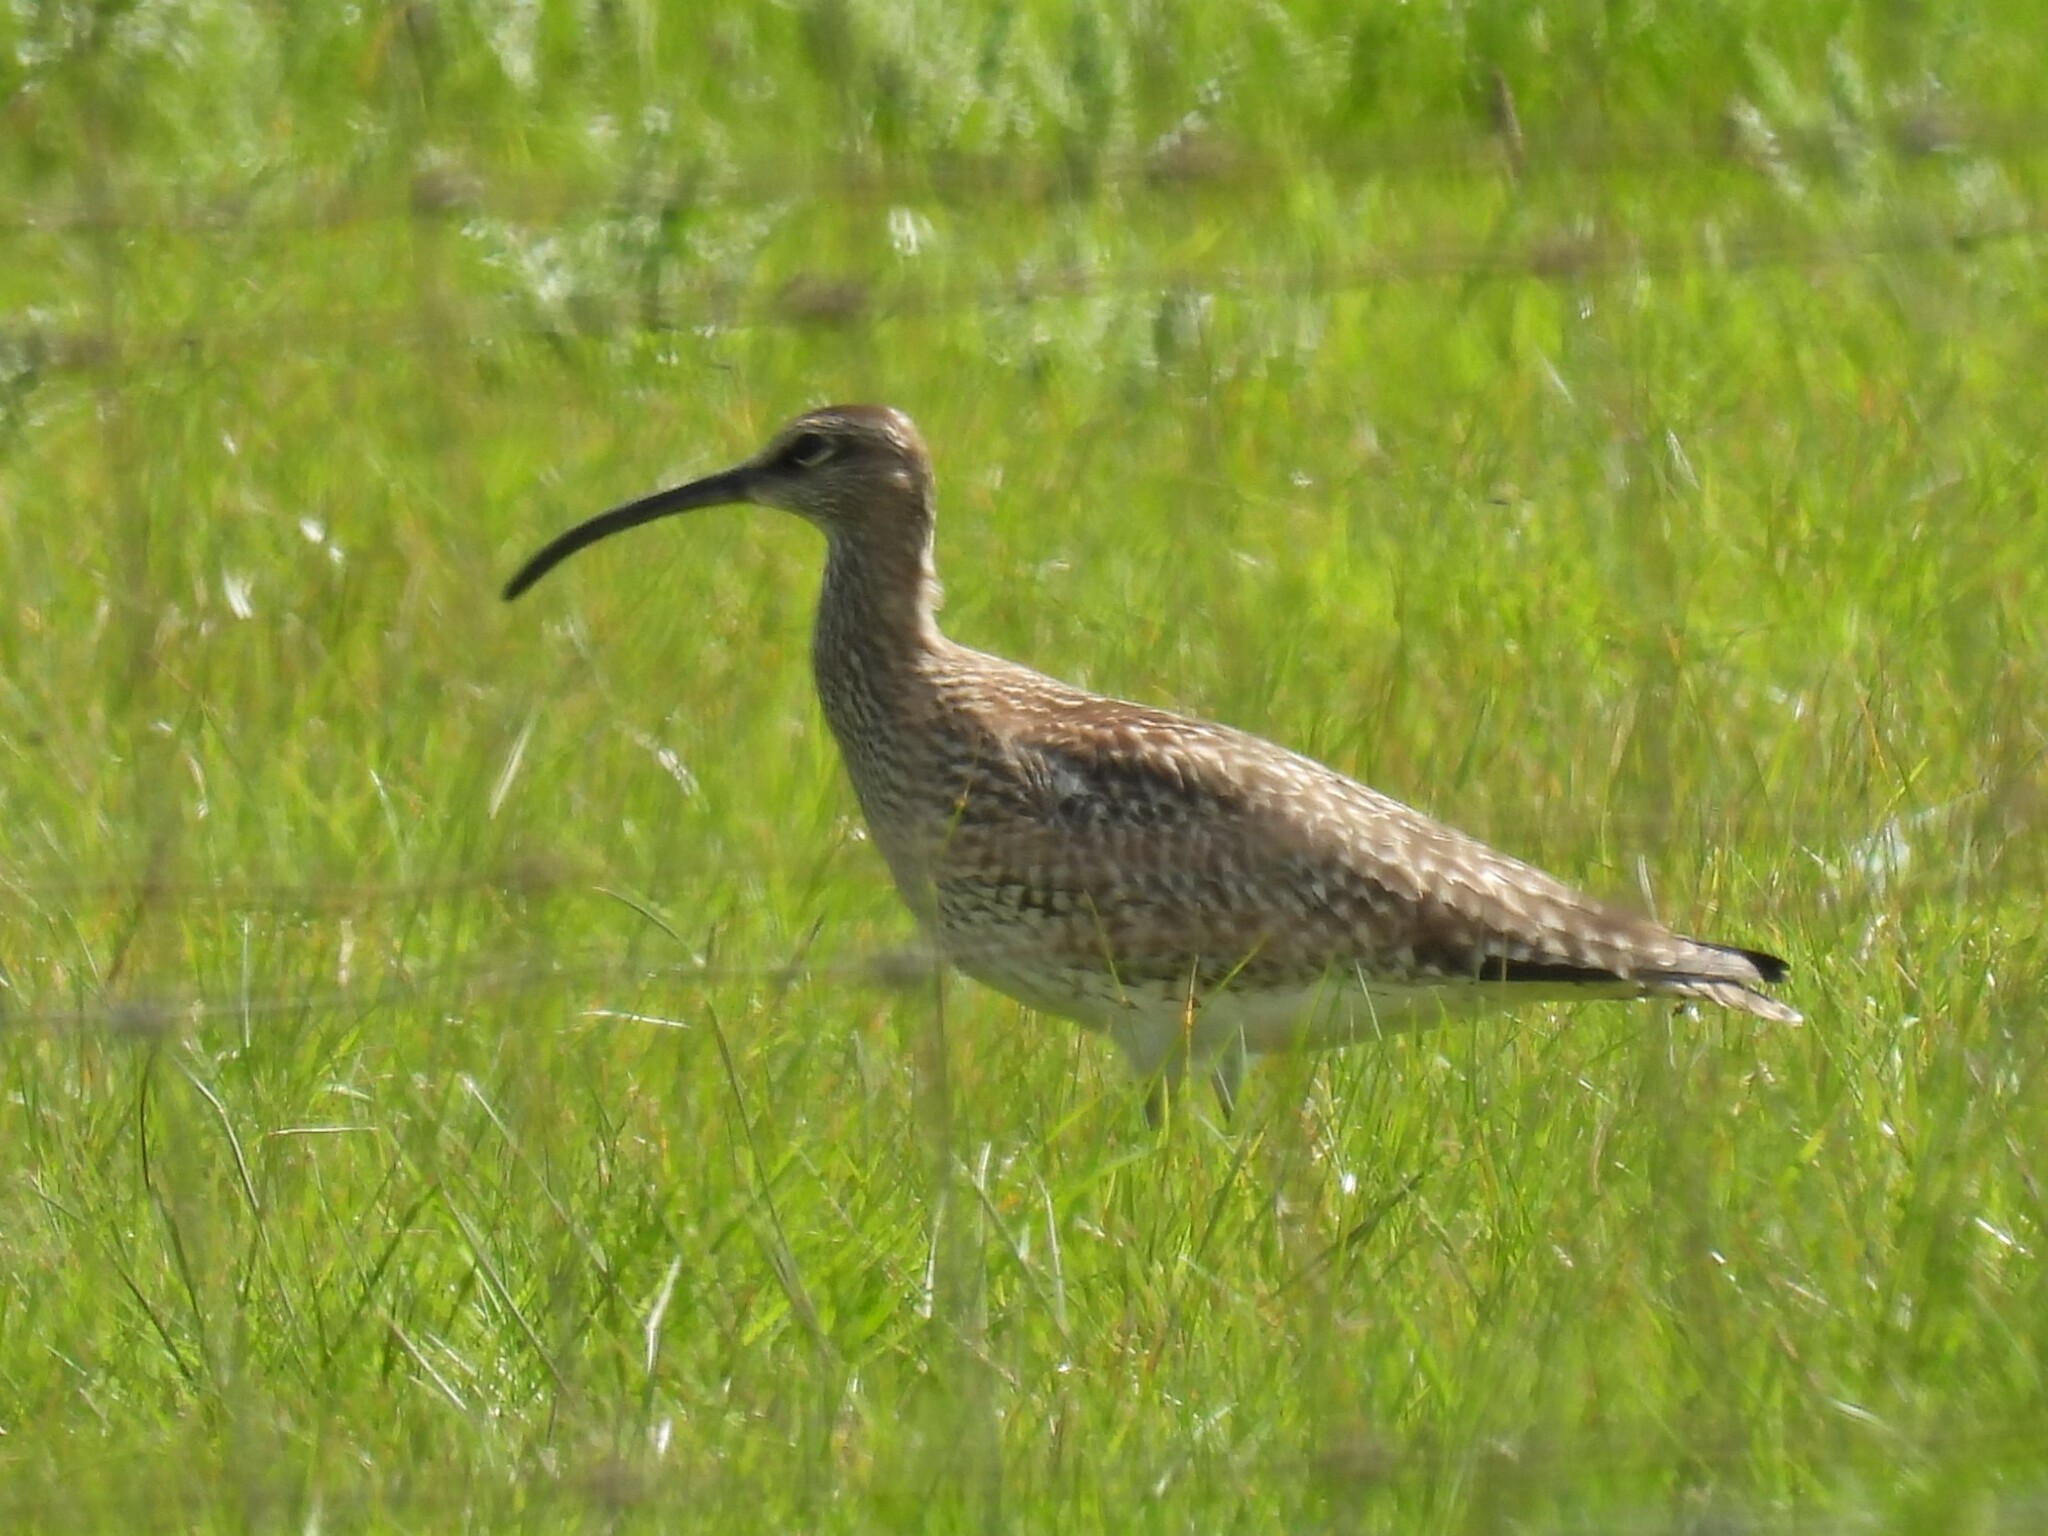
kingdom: Animalia
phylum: Chordata
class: Aves
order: Charadriiformes
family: Scolopacidae
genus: Numenius
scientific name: Numenius phaeopus
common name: Whimbrel
